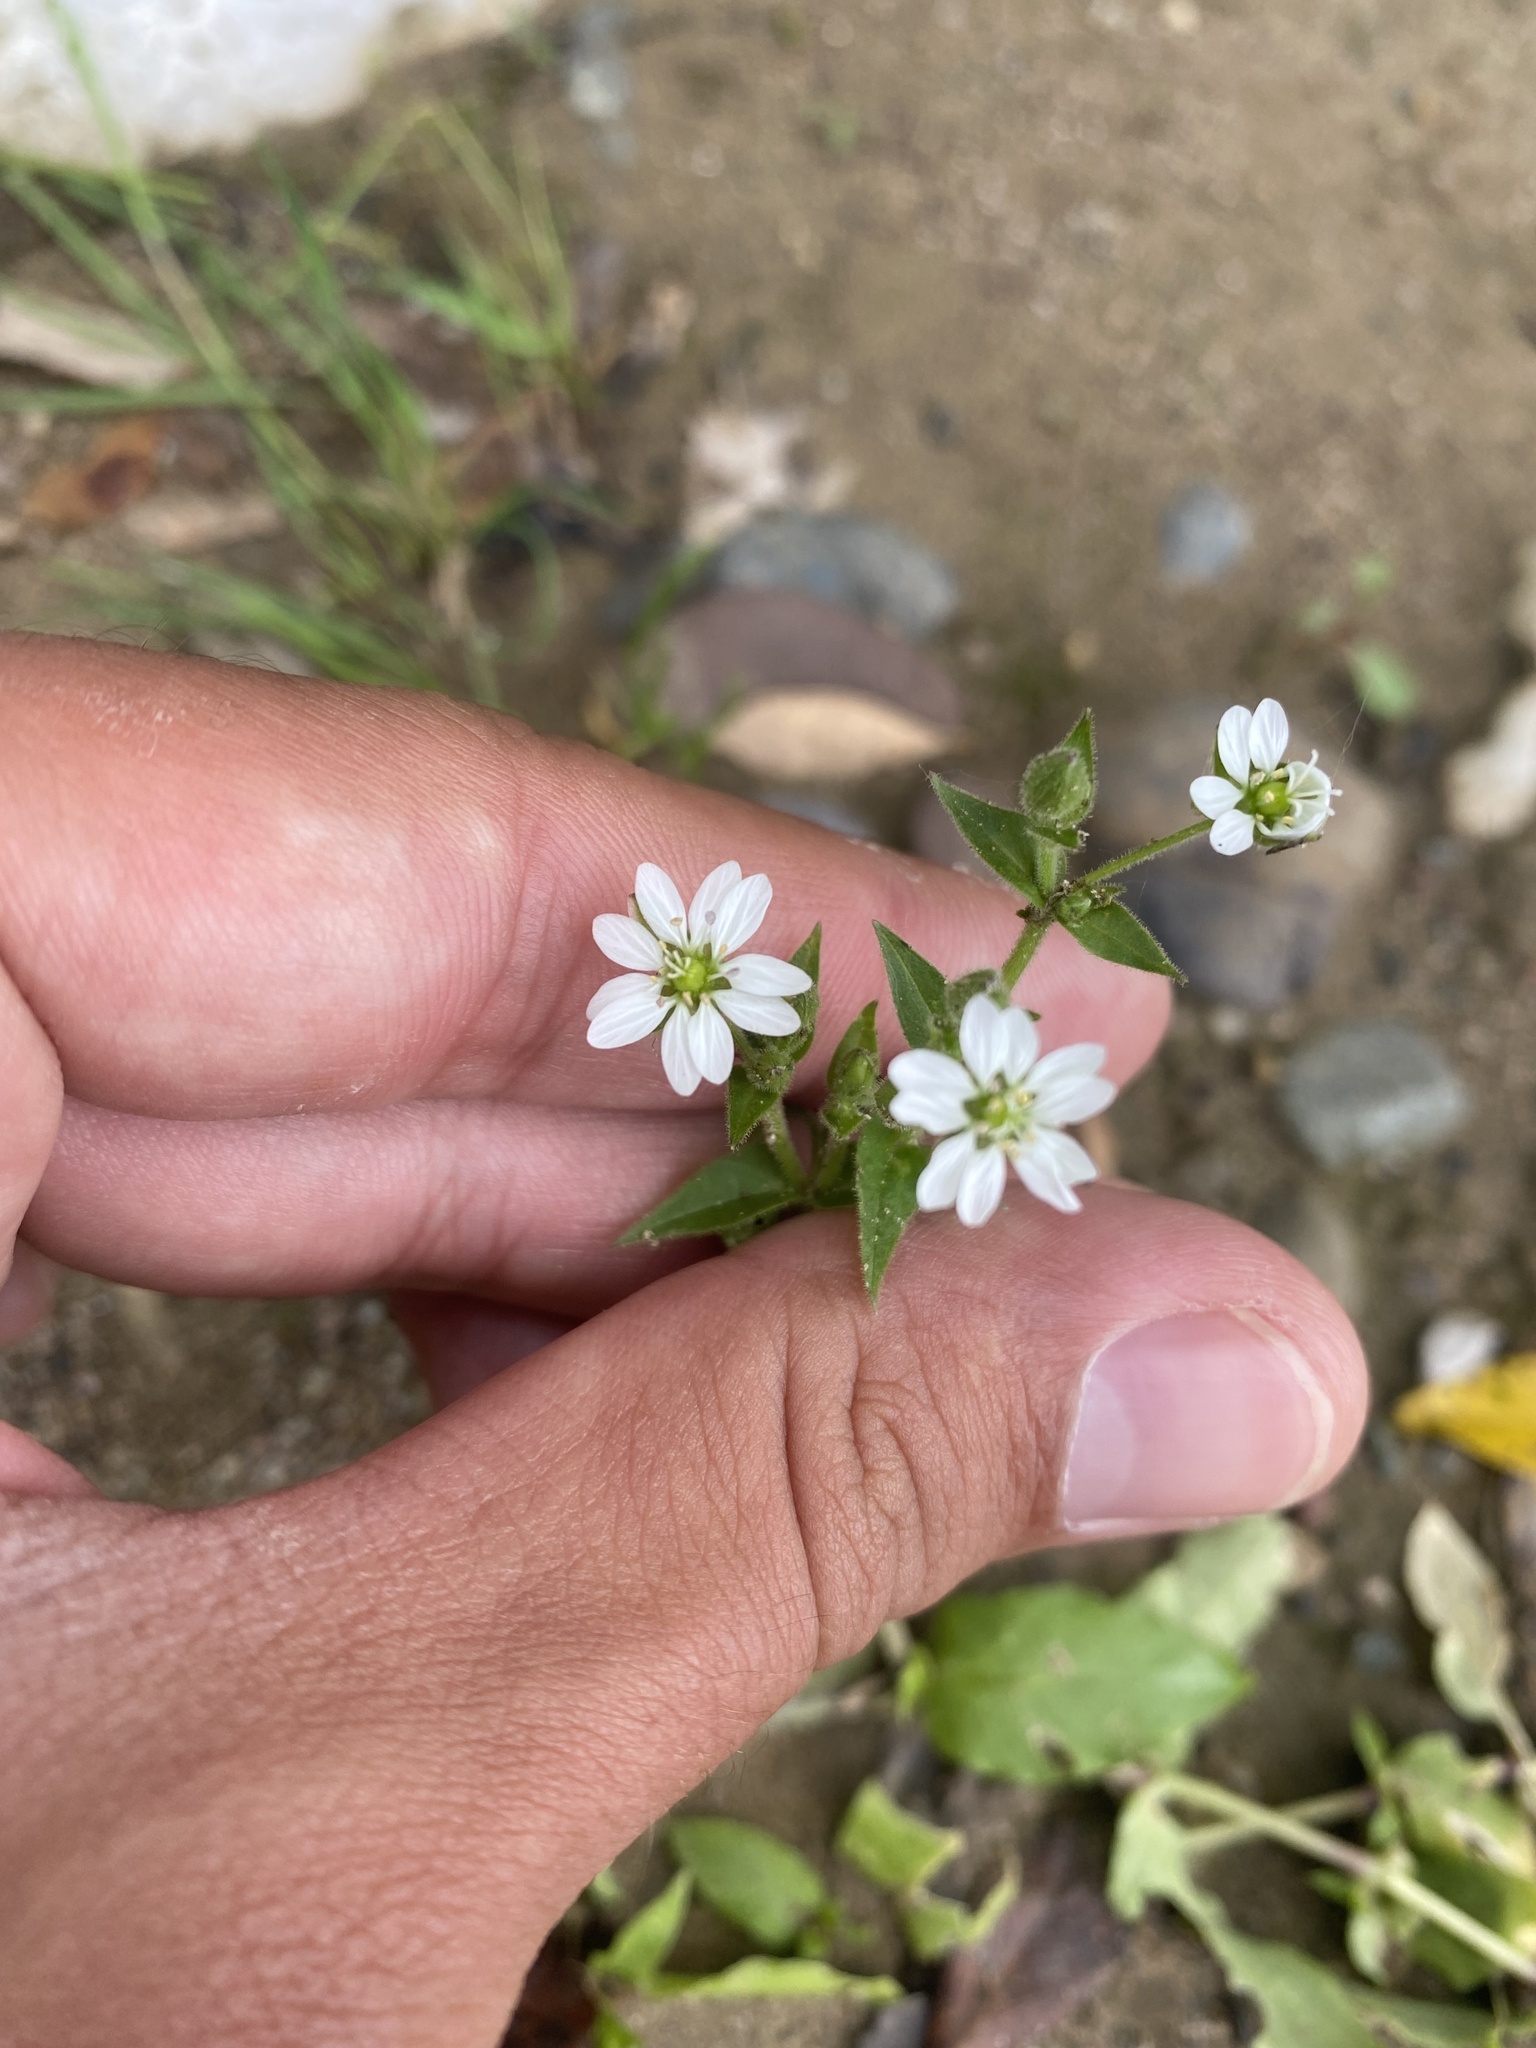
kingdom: Plantae
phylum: Tracheophyta
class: Magnoliopsida
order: Caryophyllales
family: Caryophyllaceae
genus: Stellaria
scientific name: Stellaria aquatica
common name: Water chickweed
